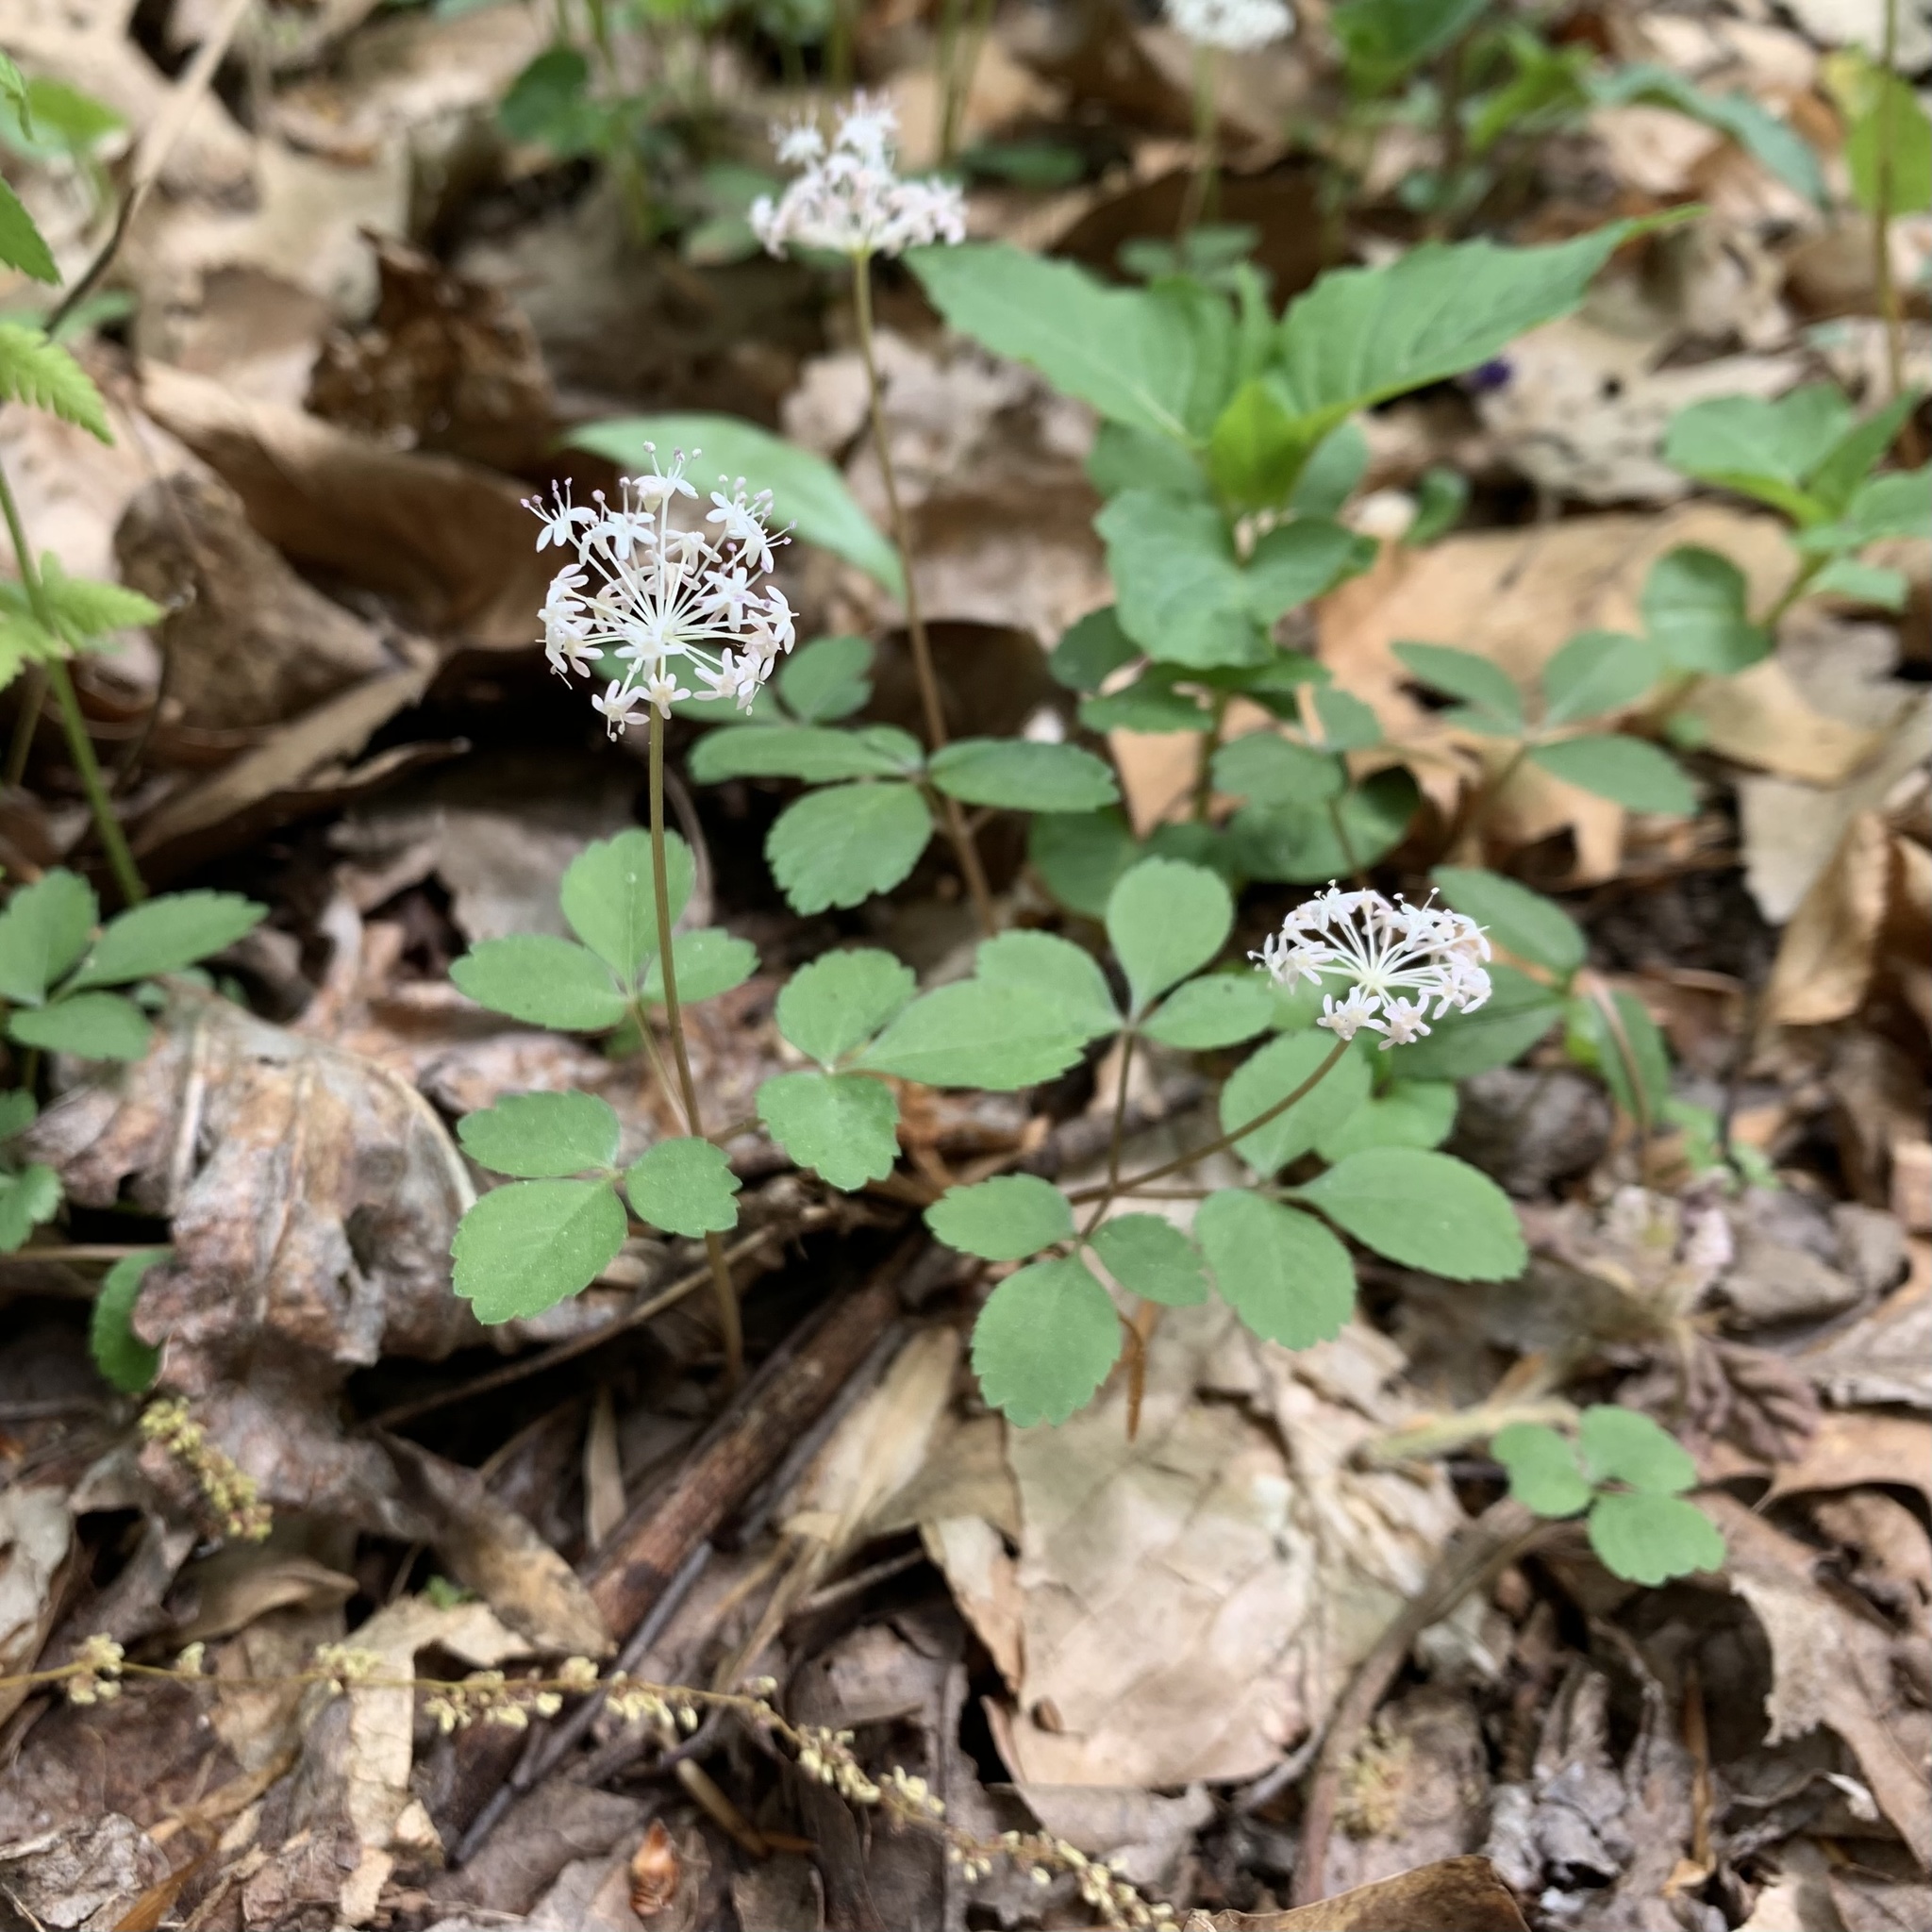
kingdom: Plantae
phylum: Tracheophyta
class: Magnoliopsida
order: Apiales
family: Araliaceae
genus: Panax
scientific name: Panax trifolius
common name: Dwarf ginseng
